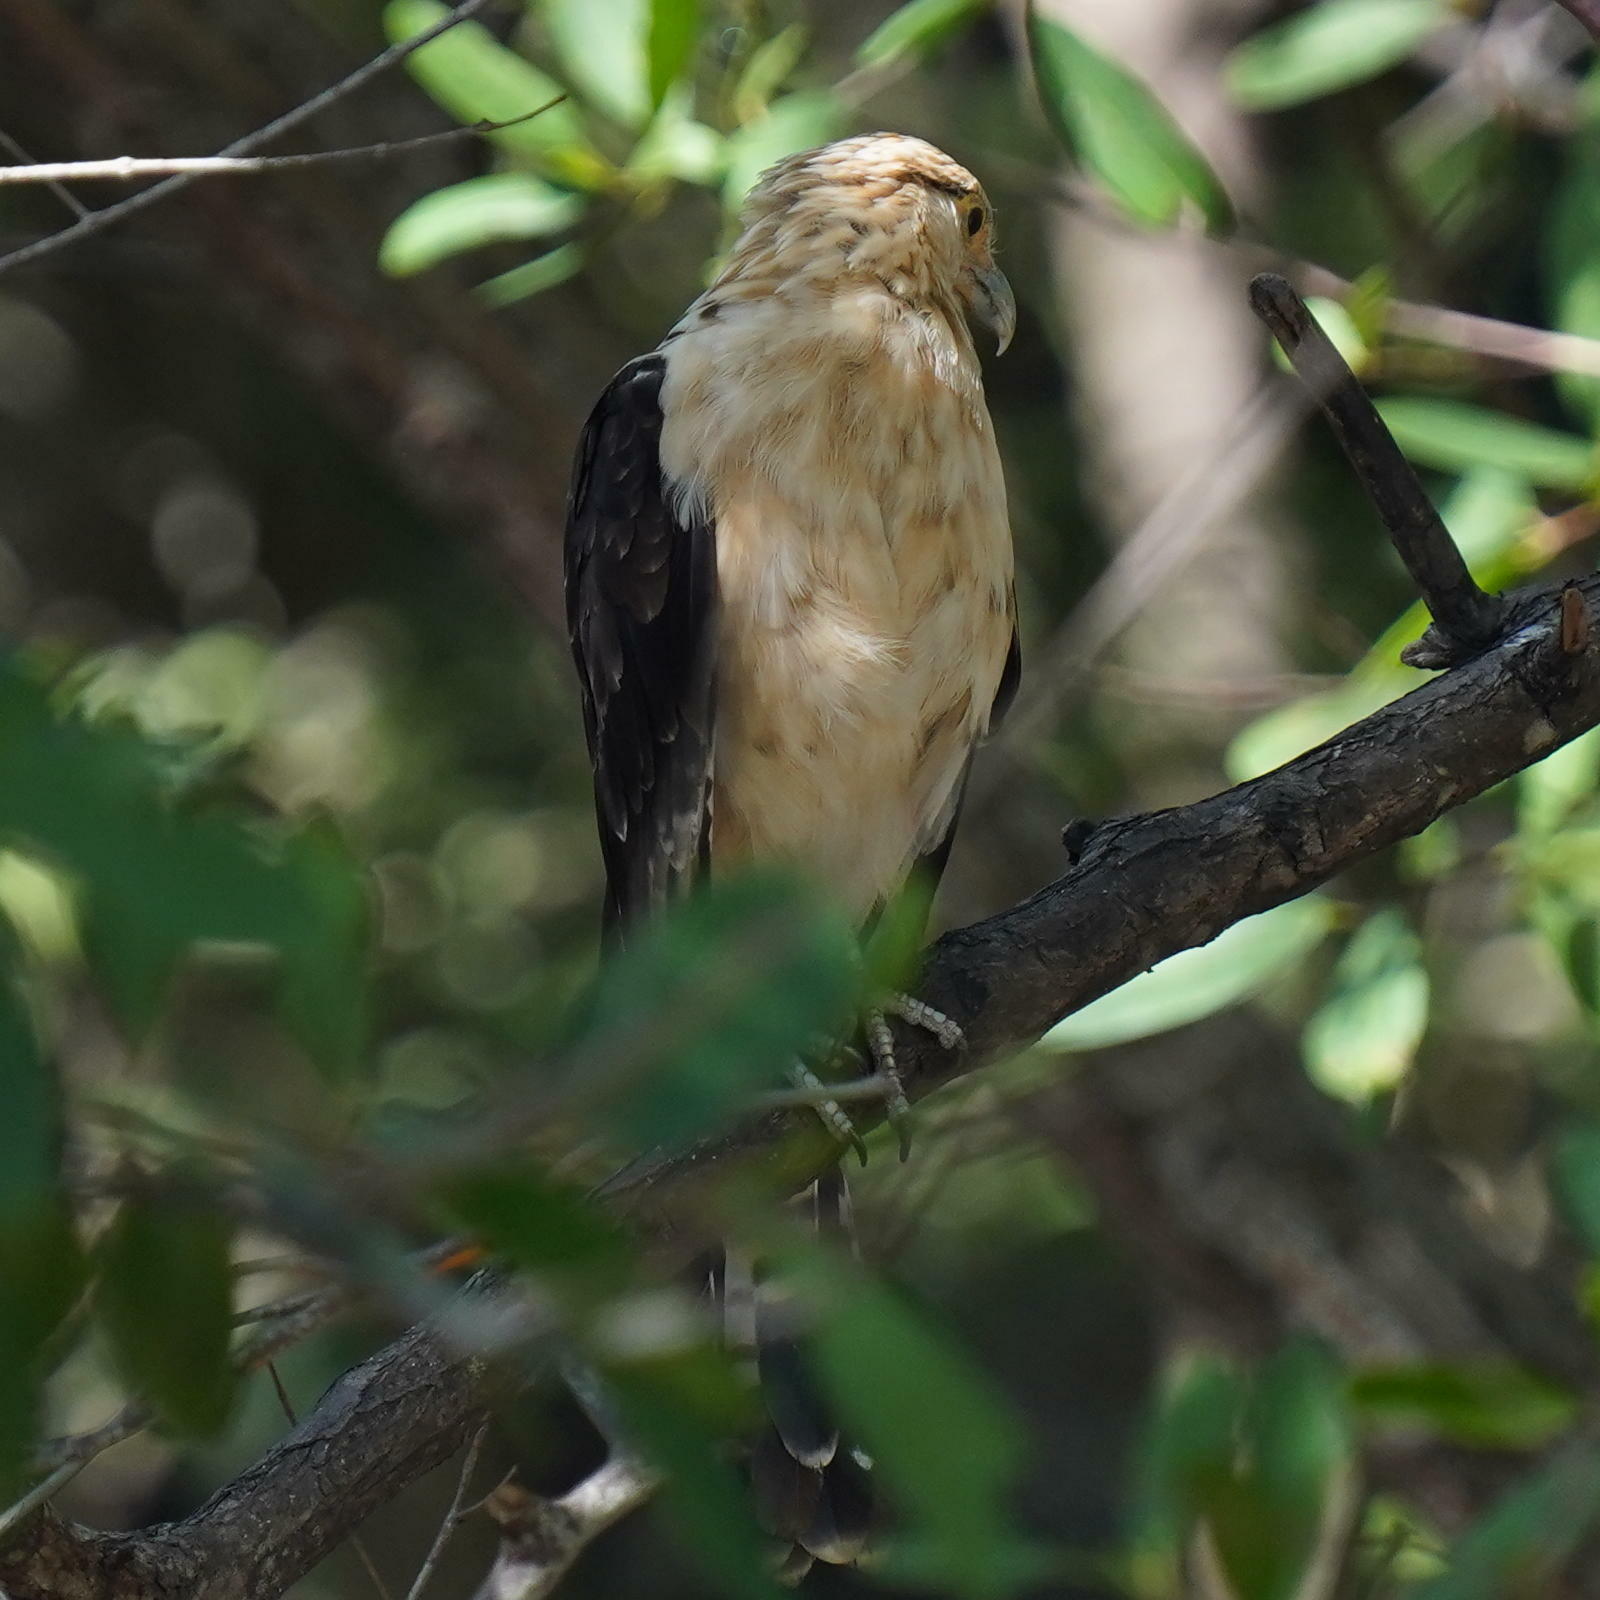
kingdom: Animalia
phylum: Chordata
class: Aves
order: Falconiformes
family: Falconidae
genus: Daptrius
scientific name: Daptrius
